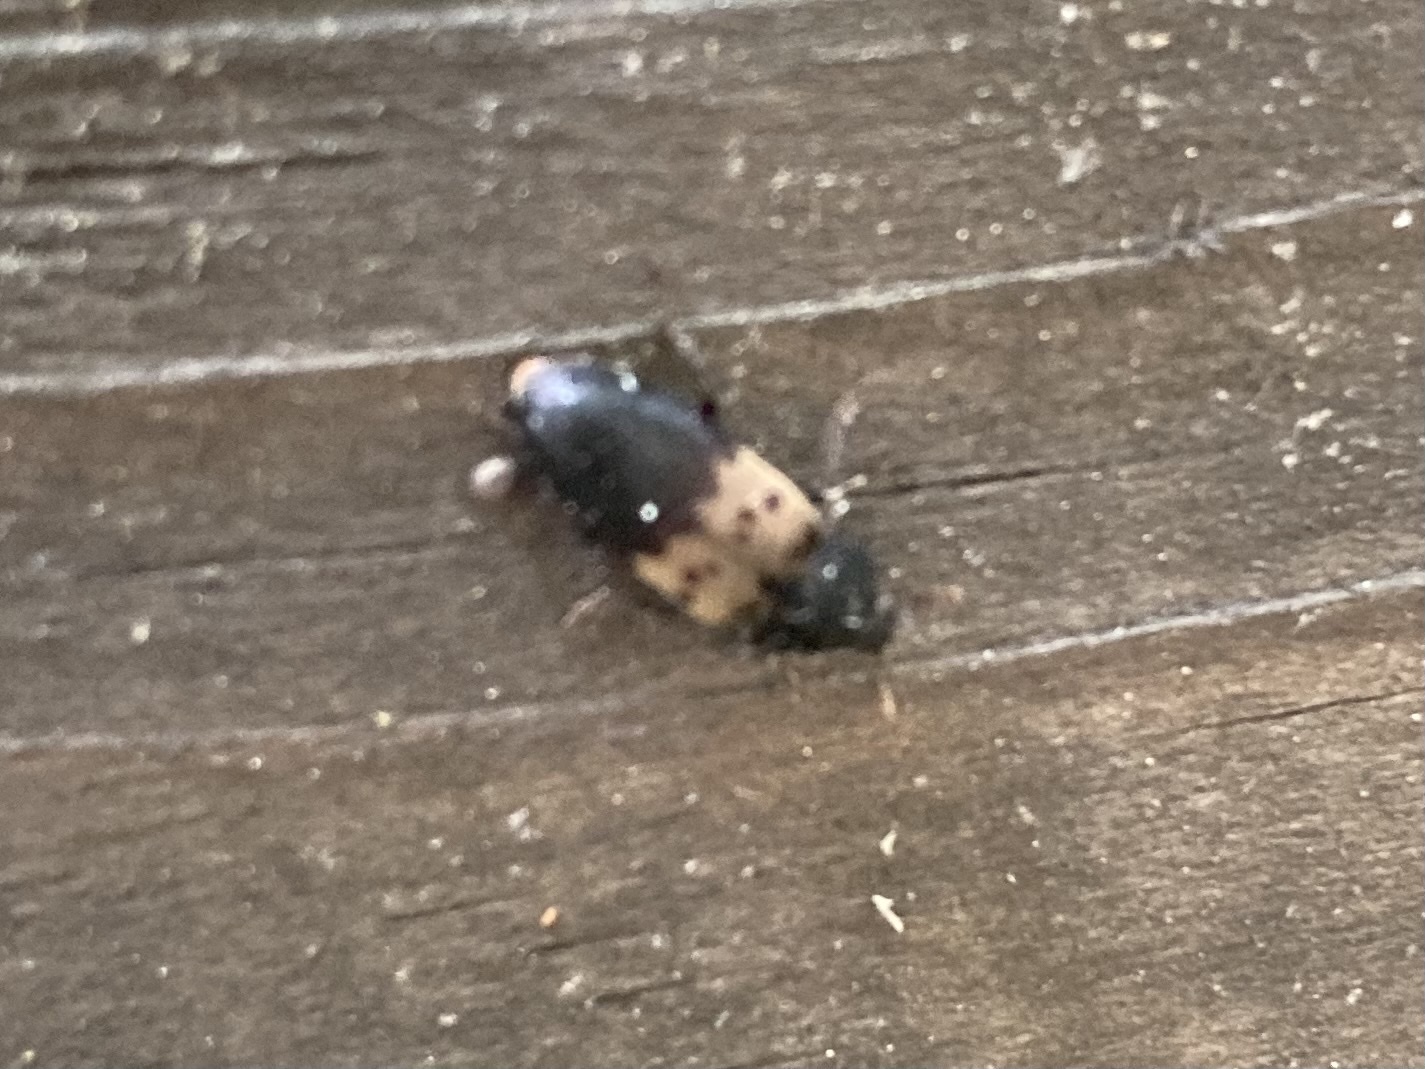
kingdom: Animalia
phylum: Arthropoda
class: Insecta
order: Coleoptera
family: Dermestidae
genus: Dermestes
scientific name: Dermestes lardarius
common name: Larder beetle
